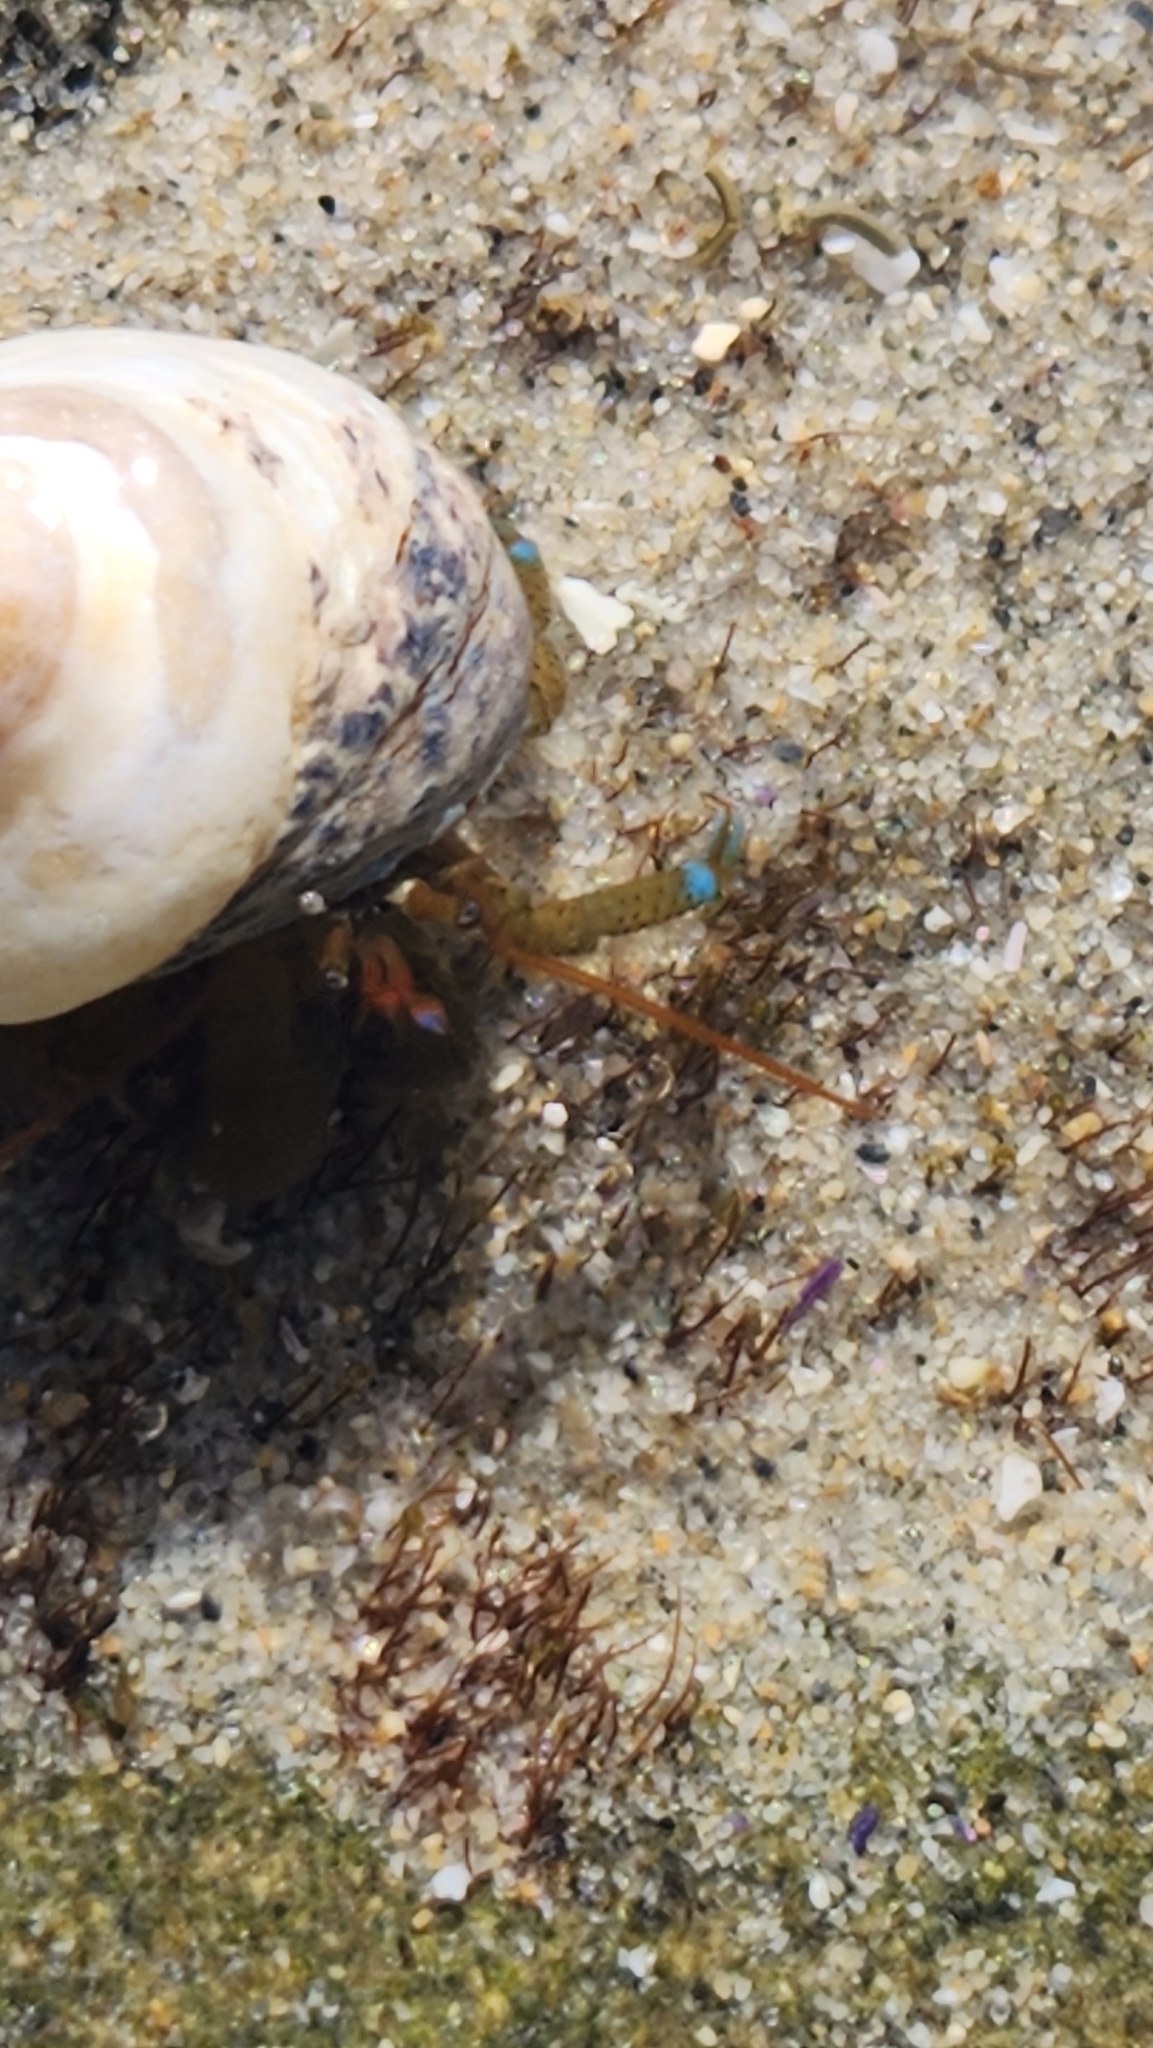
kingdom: Animalia
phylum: Arthropoda
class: Malacostraca
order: Decapoda
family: Paguridae
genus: Pagurus
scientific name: Pagurus samuelis
